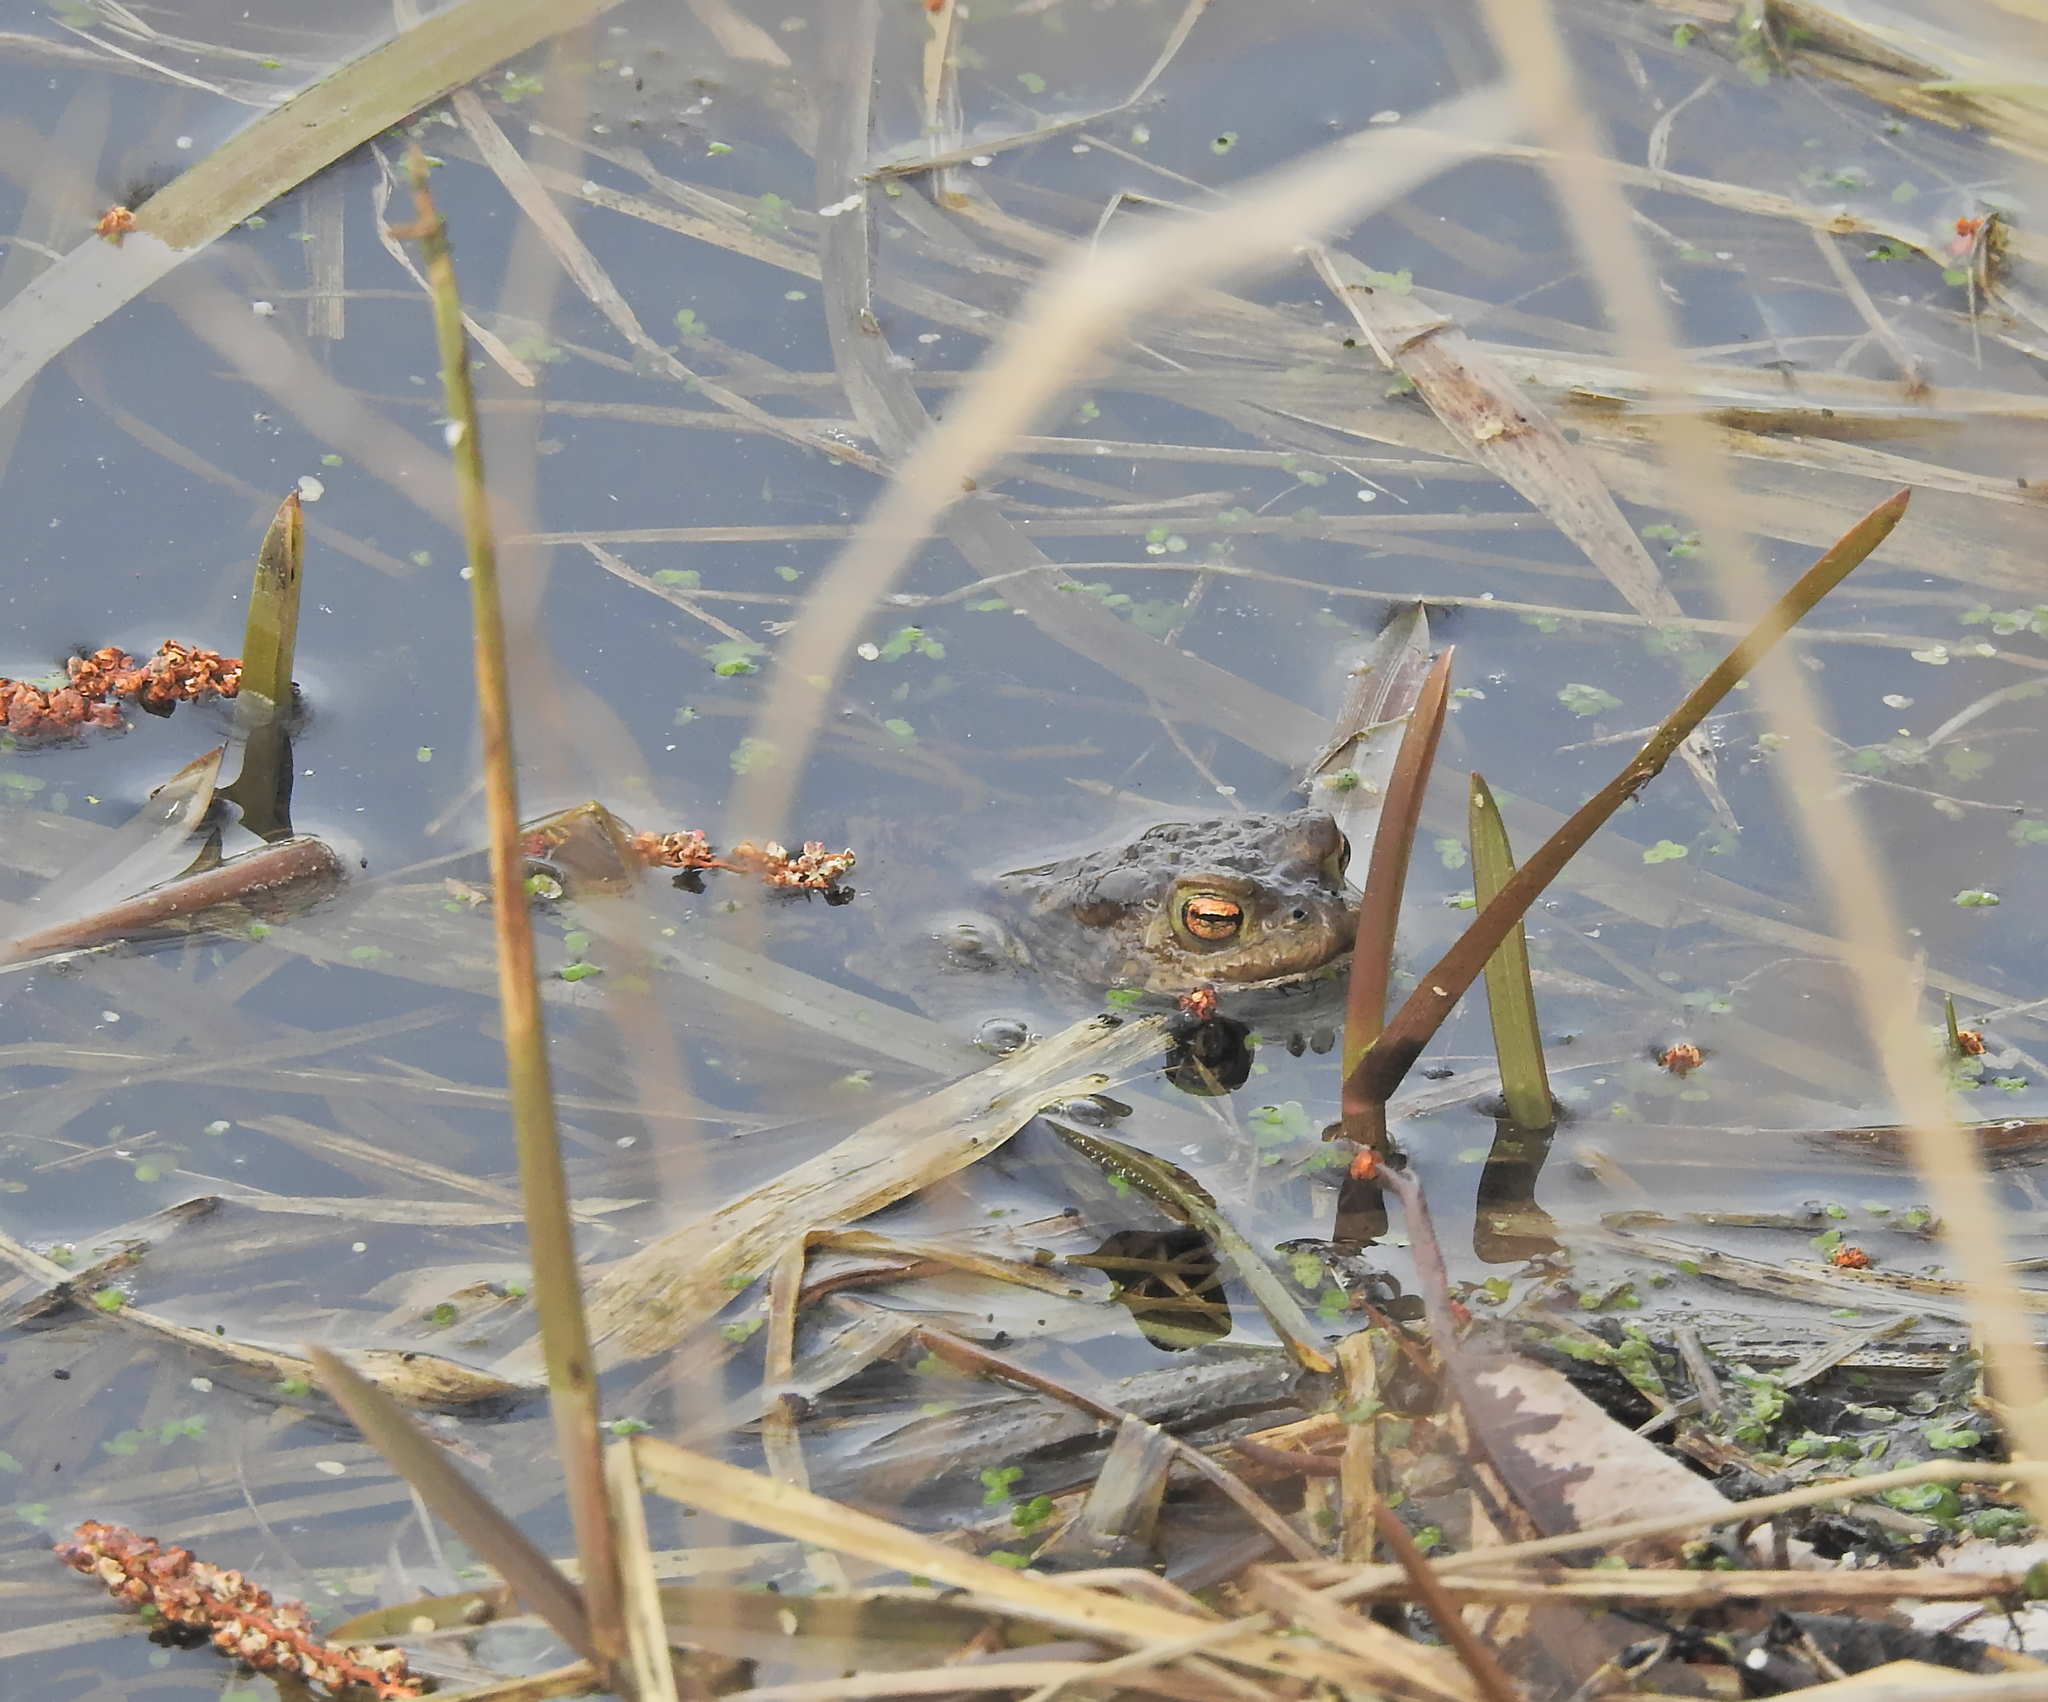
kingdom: Animalia
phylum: Chordata
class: Amphibia
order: Anura
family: Bufonidae
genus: Bufo
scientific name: Bufo bufo
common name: Common toad
